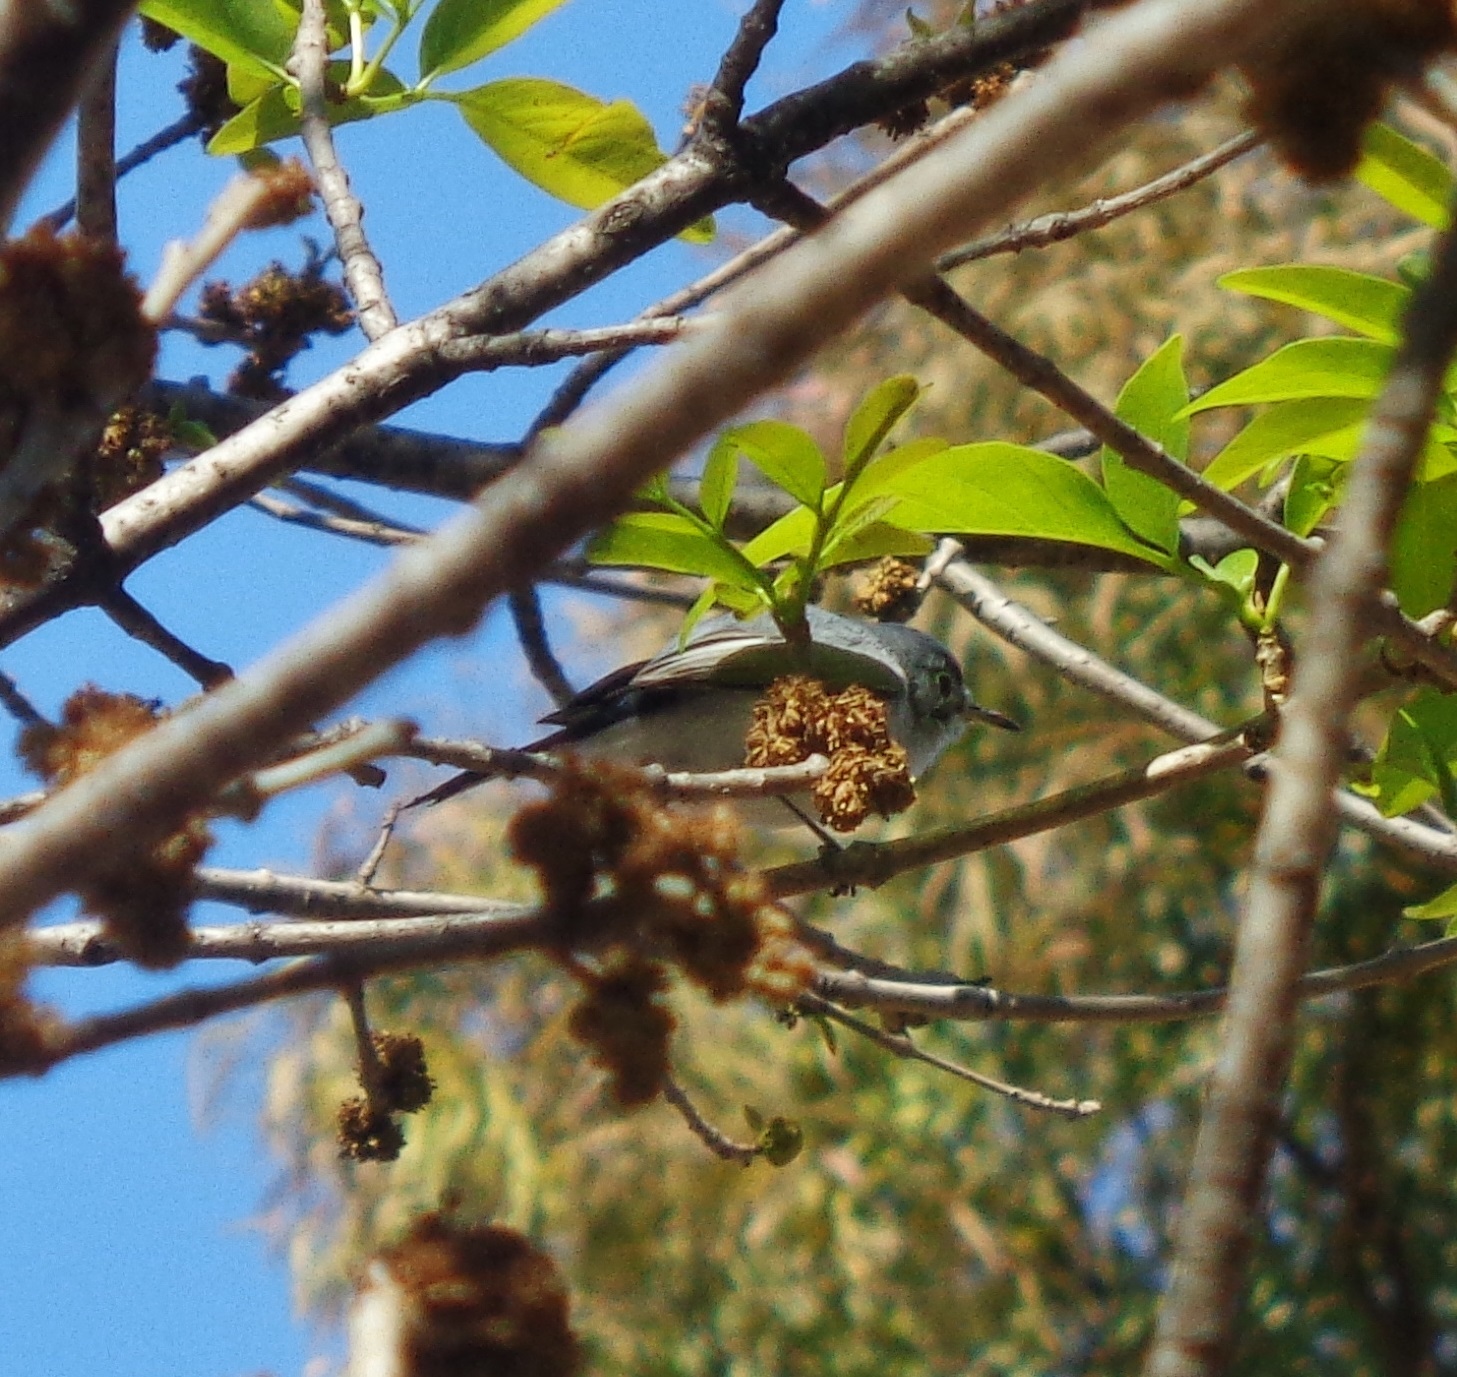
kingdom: Animalia
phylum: Chordata
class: Aves
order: Passeriformes
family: Polioptilidae
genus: Polioptila
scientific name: Polioptila caerulea
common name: Blue-gray gnatcatcher
